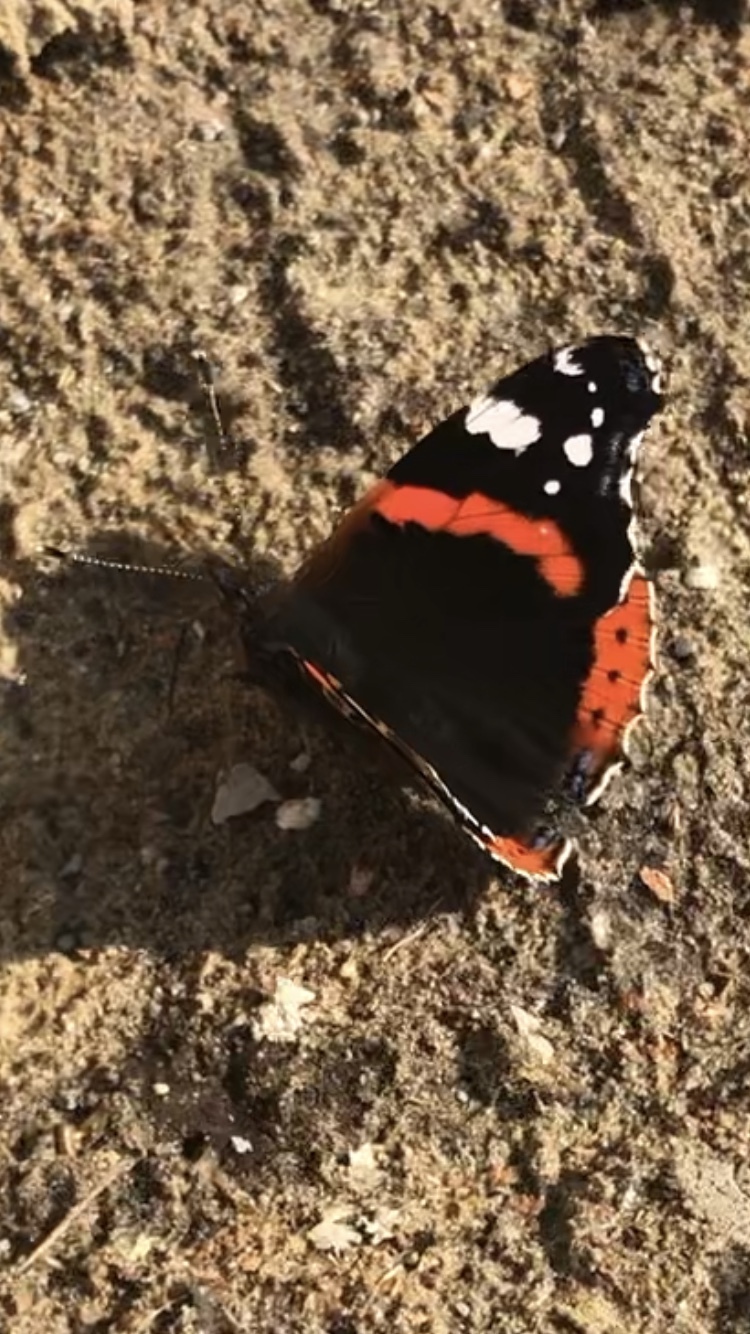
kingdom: Animalia
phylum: Arthropoda
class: Insecta
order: Lepidoptera
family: Nymphalidae
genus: Vanessa
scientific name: Vanessa atalanta
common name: Red admiral
